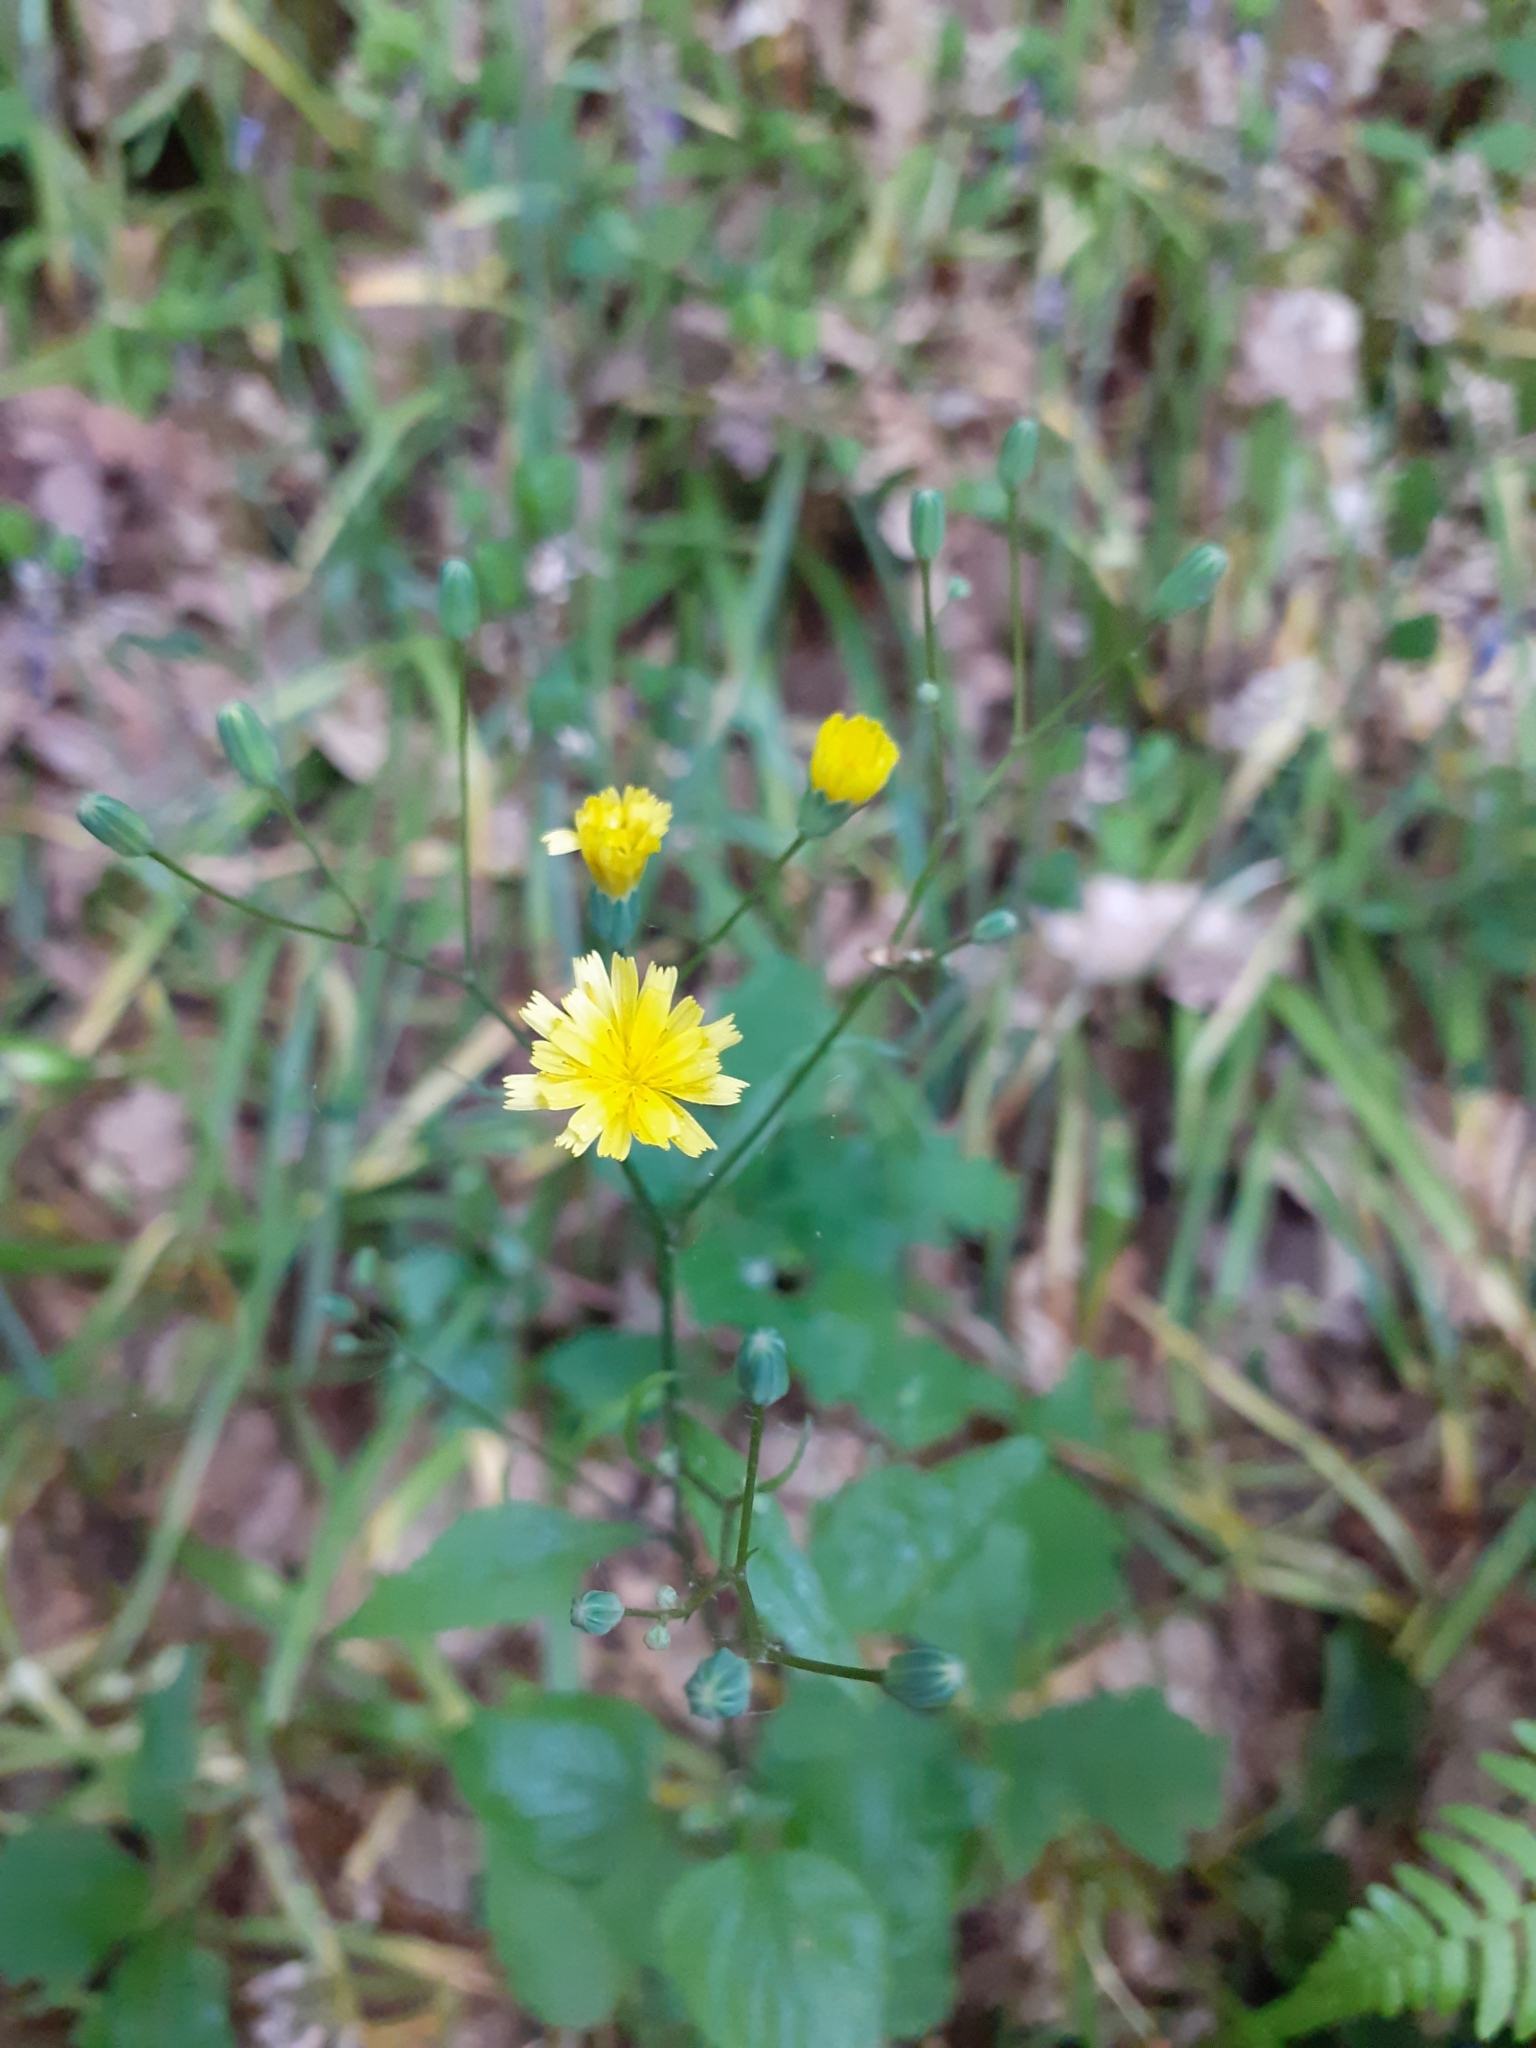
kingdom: Plantae
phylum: Tracheophyta
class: Magnoliopsida
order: Asterales
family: Asteraceae
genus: Lapsana
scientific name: Lapsana communis
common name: Nipplewort
